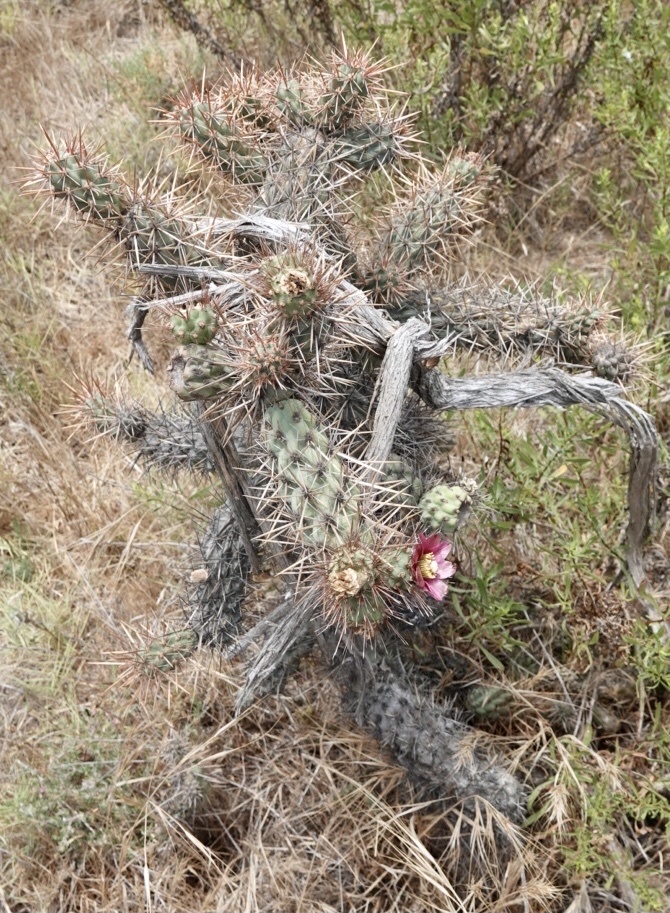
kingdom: Plantae
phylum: Tracheophyta
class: Magnoliopsida
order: Caryophyllales
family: Cactaceae
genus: Cylindropuntia
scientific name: Cylindropuntia prolifera
